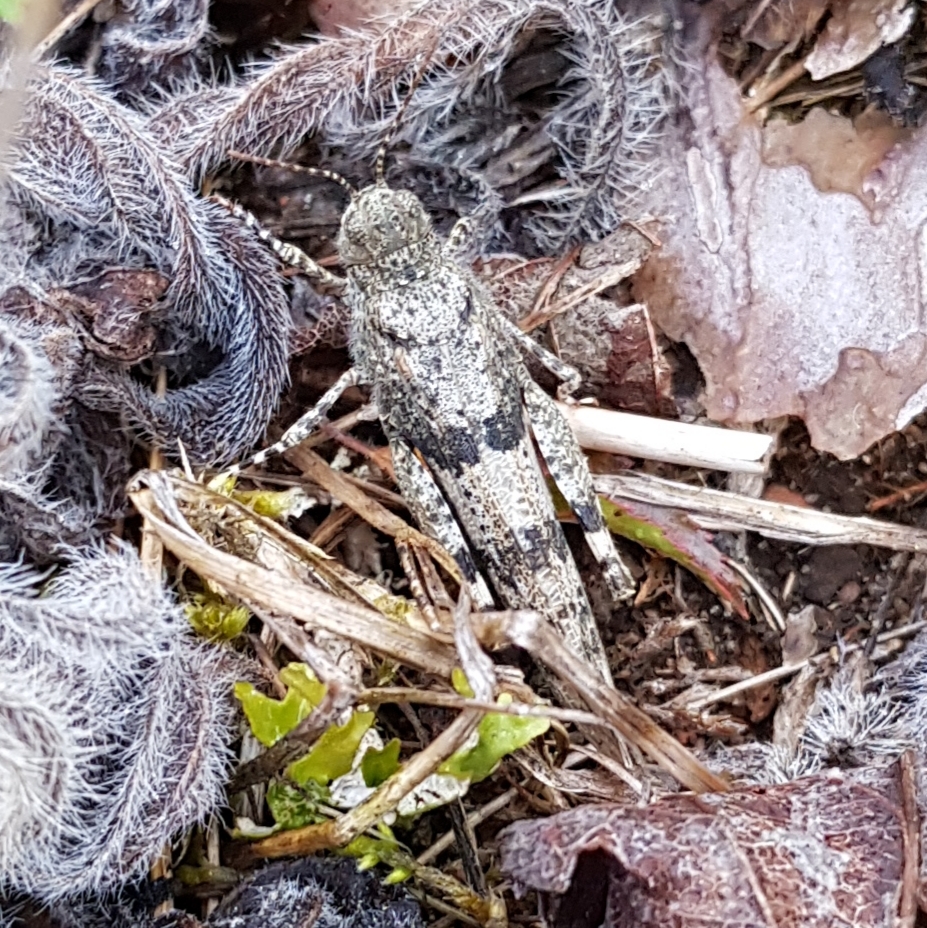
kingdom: Animalia
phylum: Arthropoda
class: Insecta
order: Orthoptera
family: Acrididae
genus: Sphingonotus
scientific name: Sphingonotus caerulans
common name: Blue-winged locust
